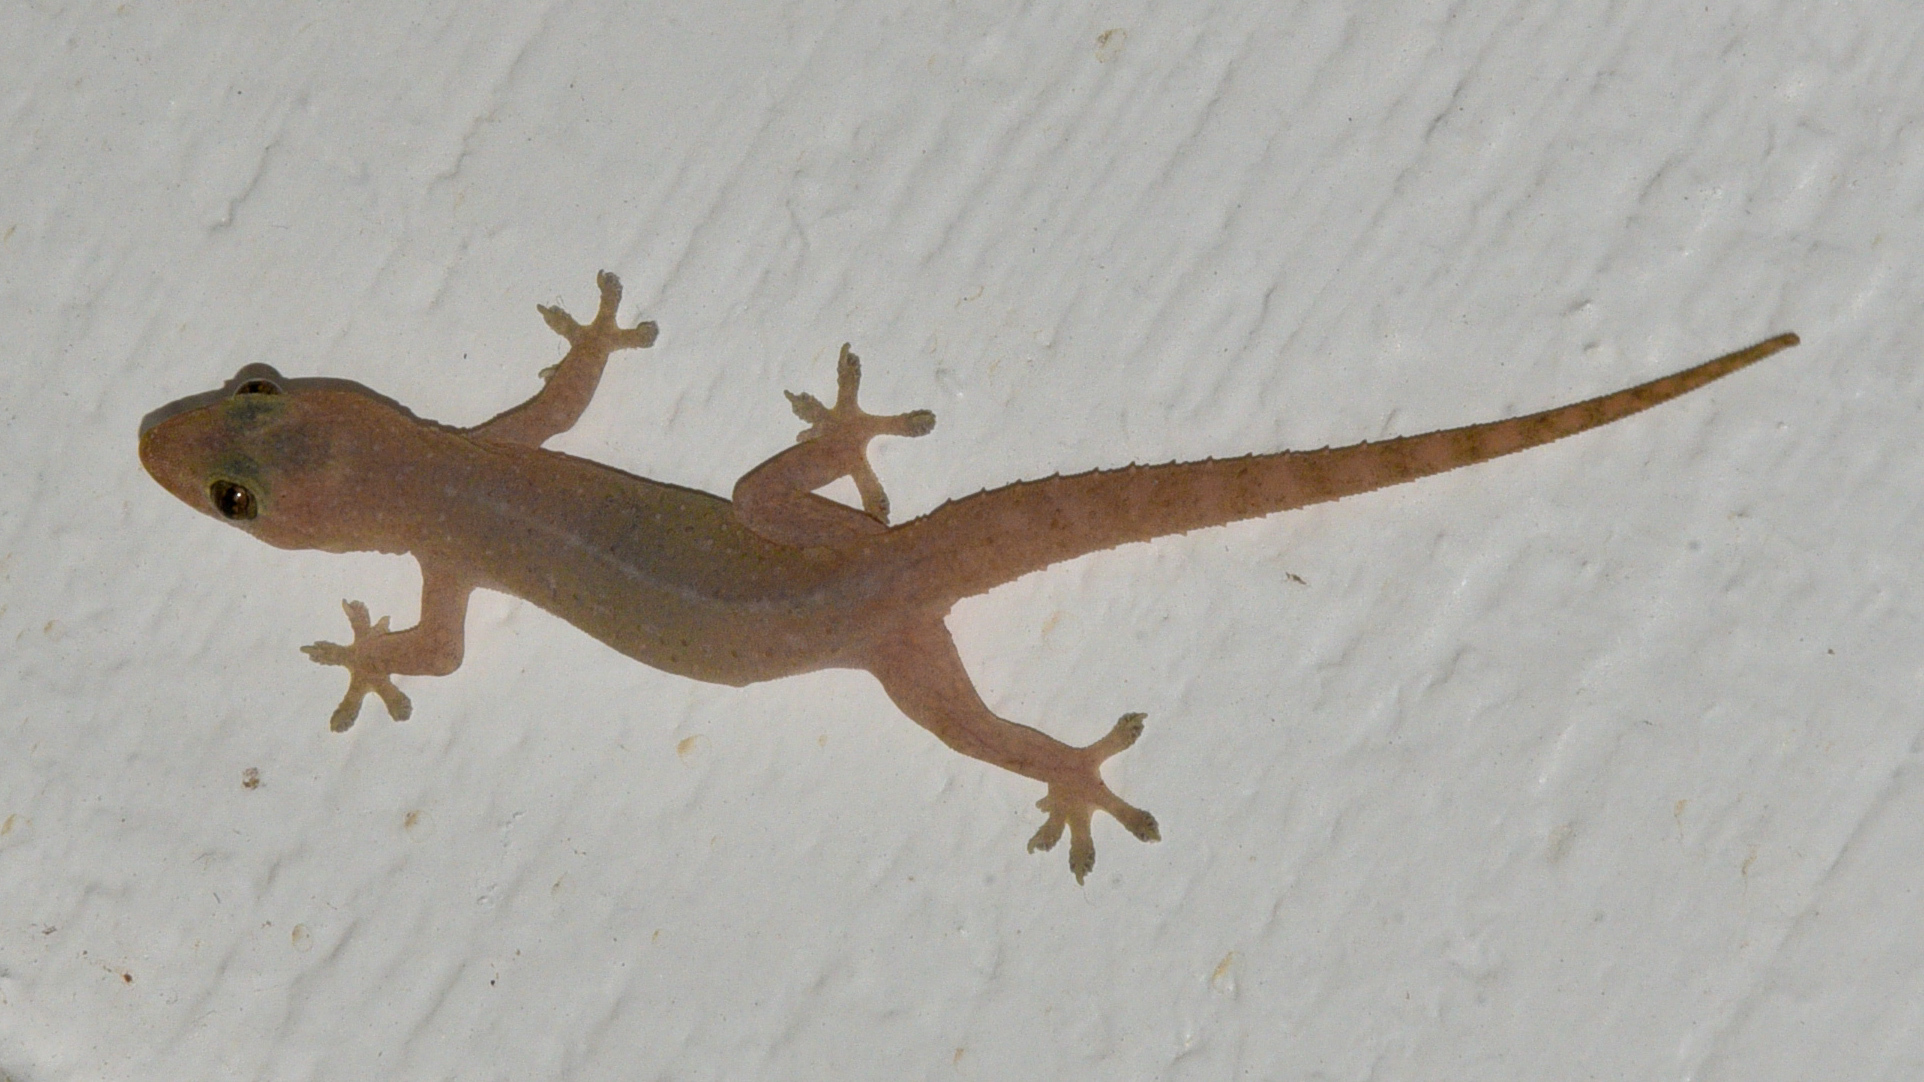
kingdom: Animalia
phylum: Chordata
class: Squamata
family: Gekkonidae
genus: Hemidactylus
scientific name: Hemidactylus frenatus
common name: Common house gecko
